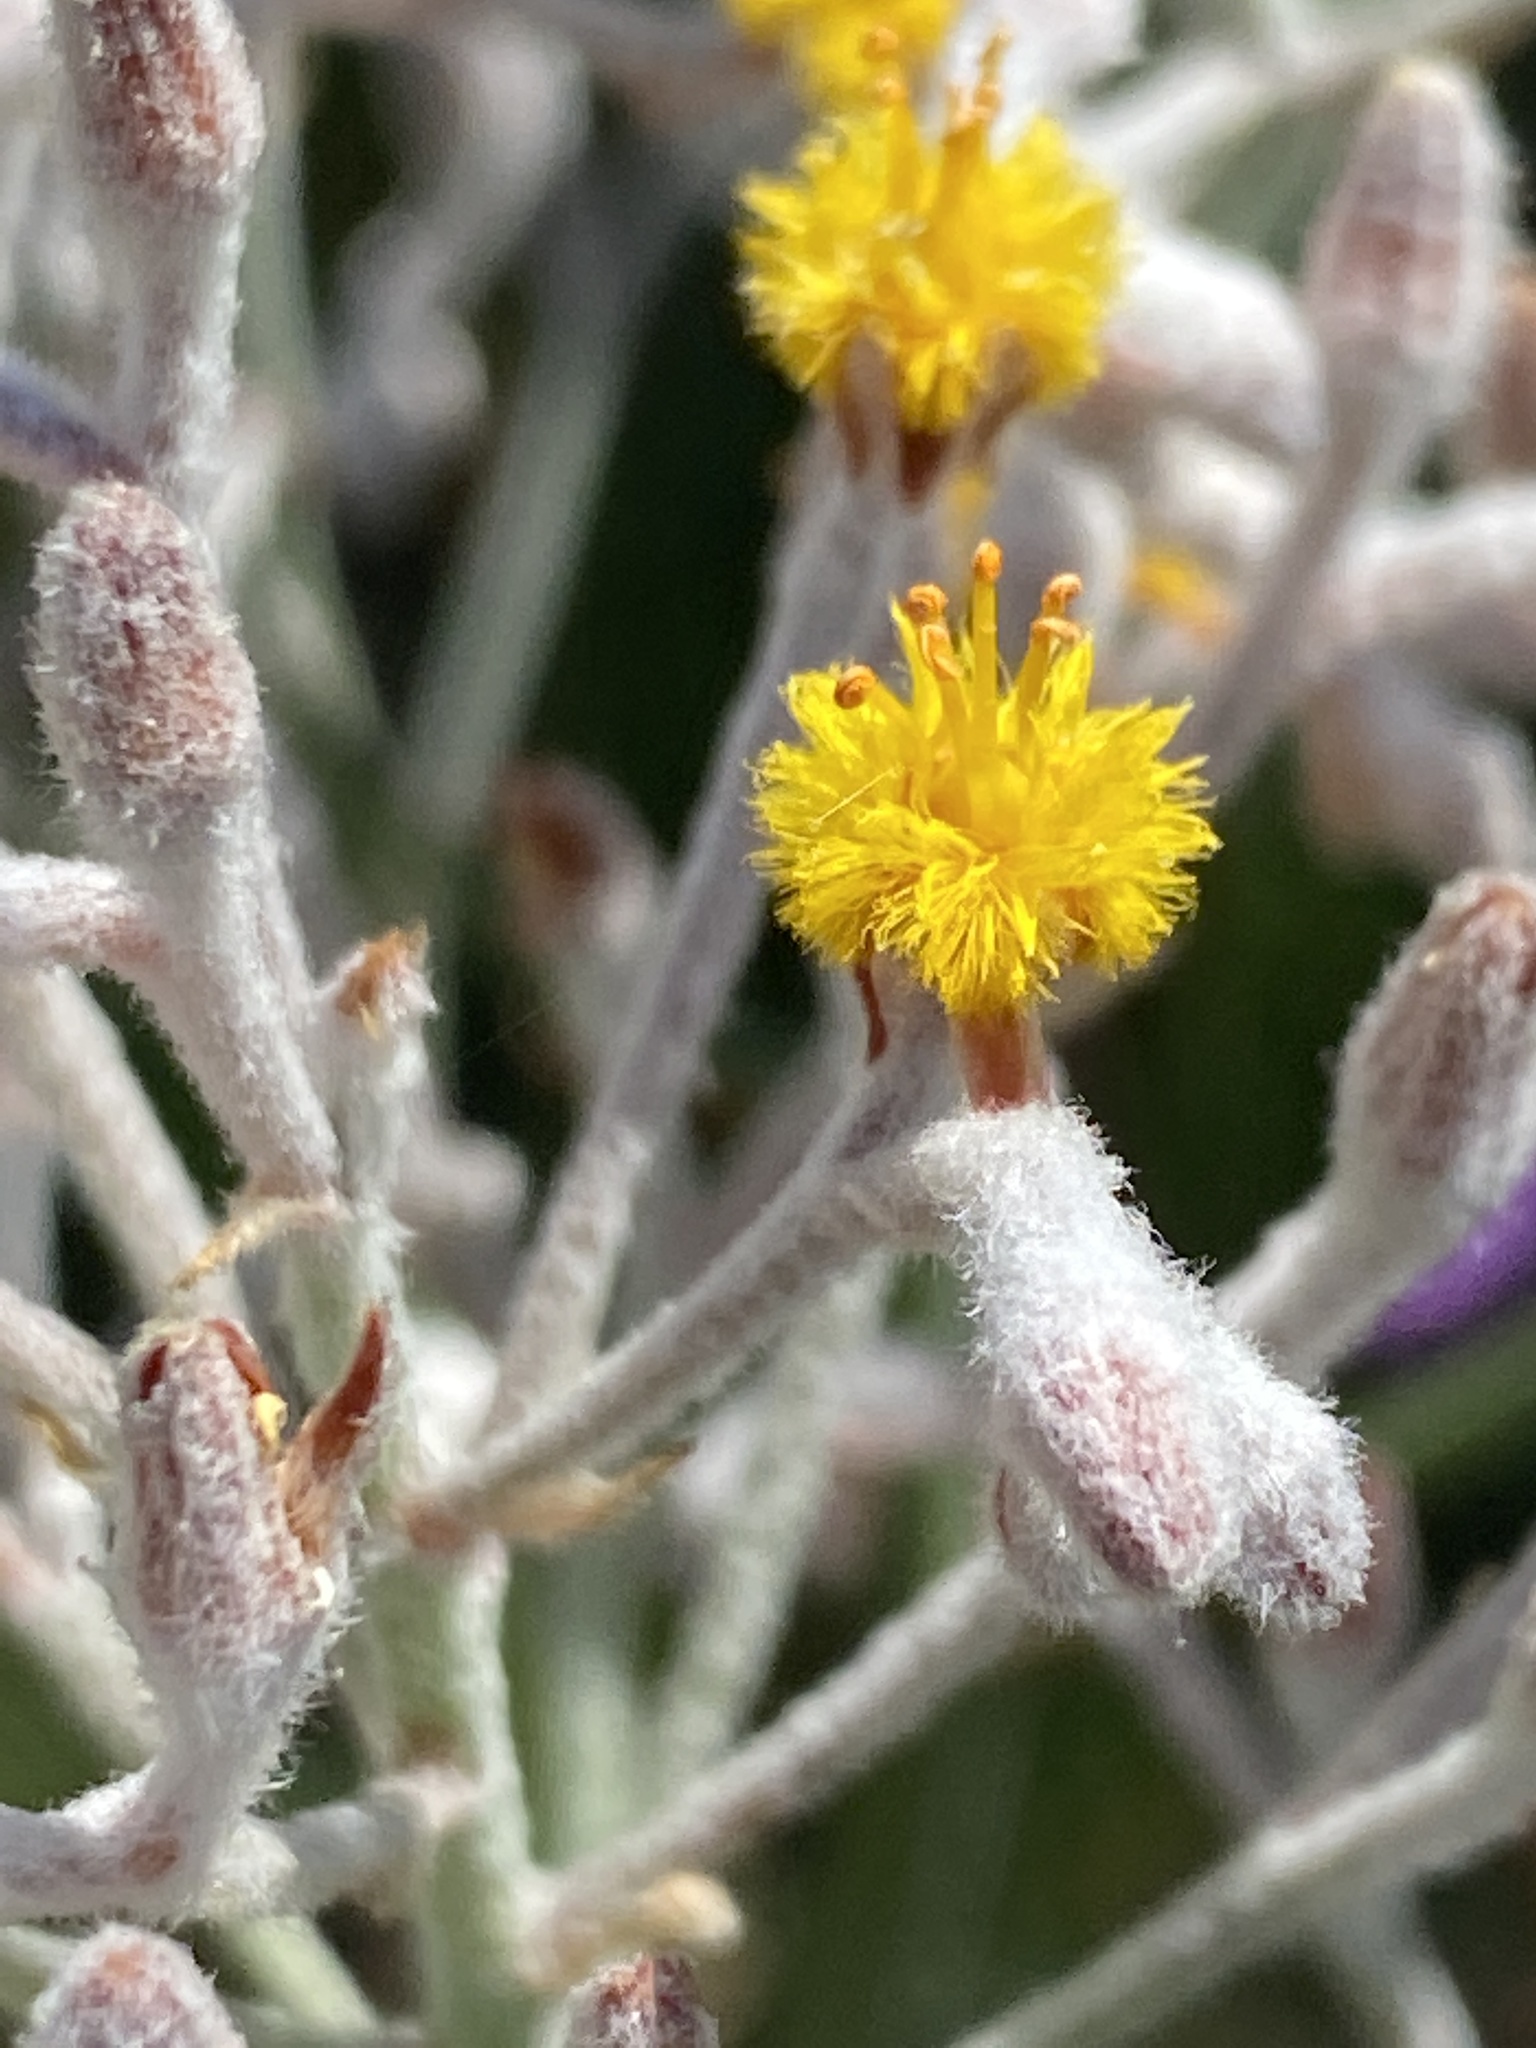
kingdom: Plantae
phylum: Tracheophyta
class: Liliopsida
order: Dioscoreales
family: Nartheciaceae
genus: Lophiola
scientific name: Lophiola aurea
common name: Golden-crest
